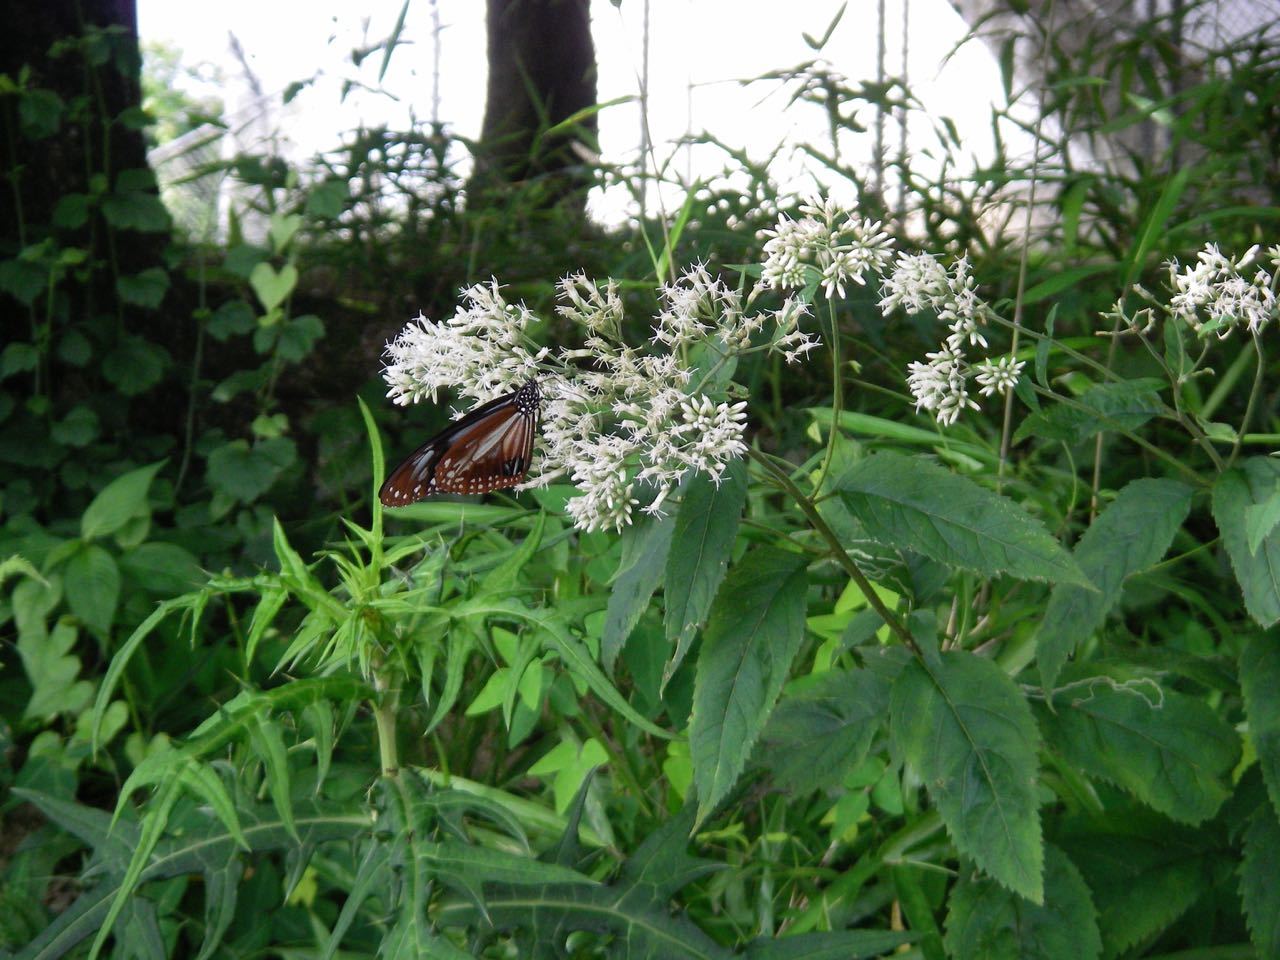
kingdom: Animalia
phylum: Arthropoda
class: Insecta
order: Lepidoptera
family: Nymphalidae
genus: Parantica
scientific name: Parantica sita
